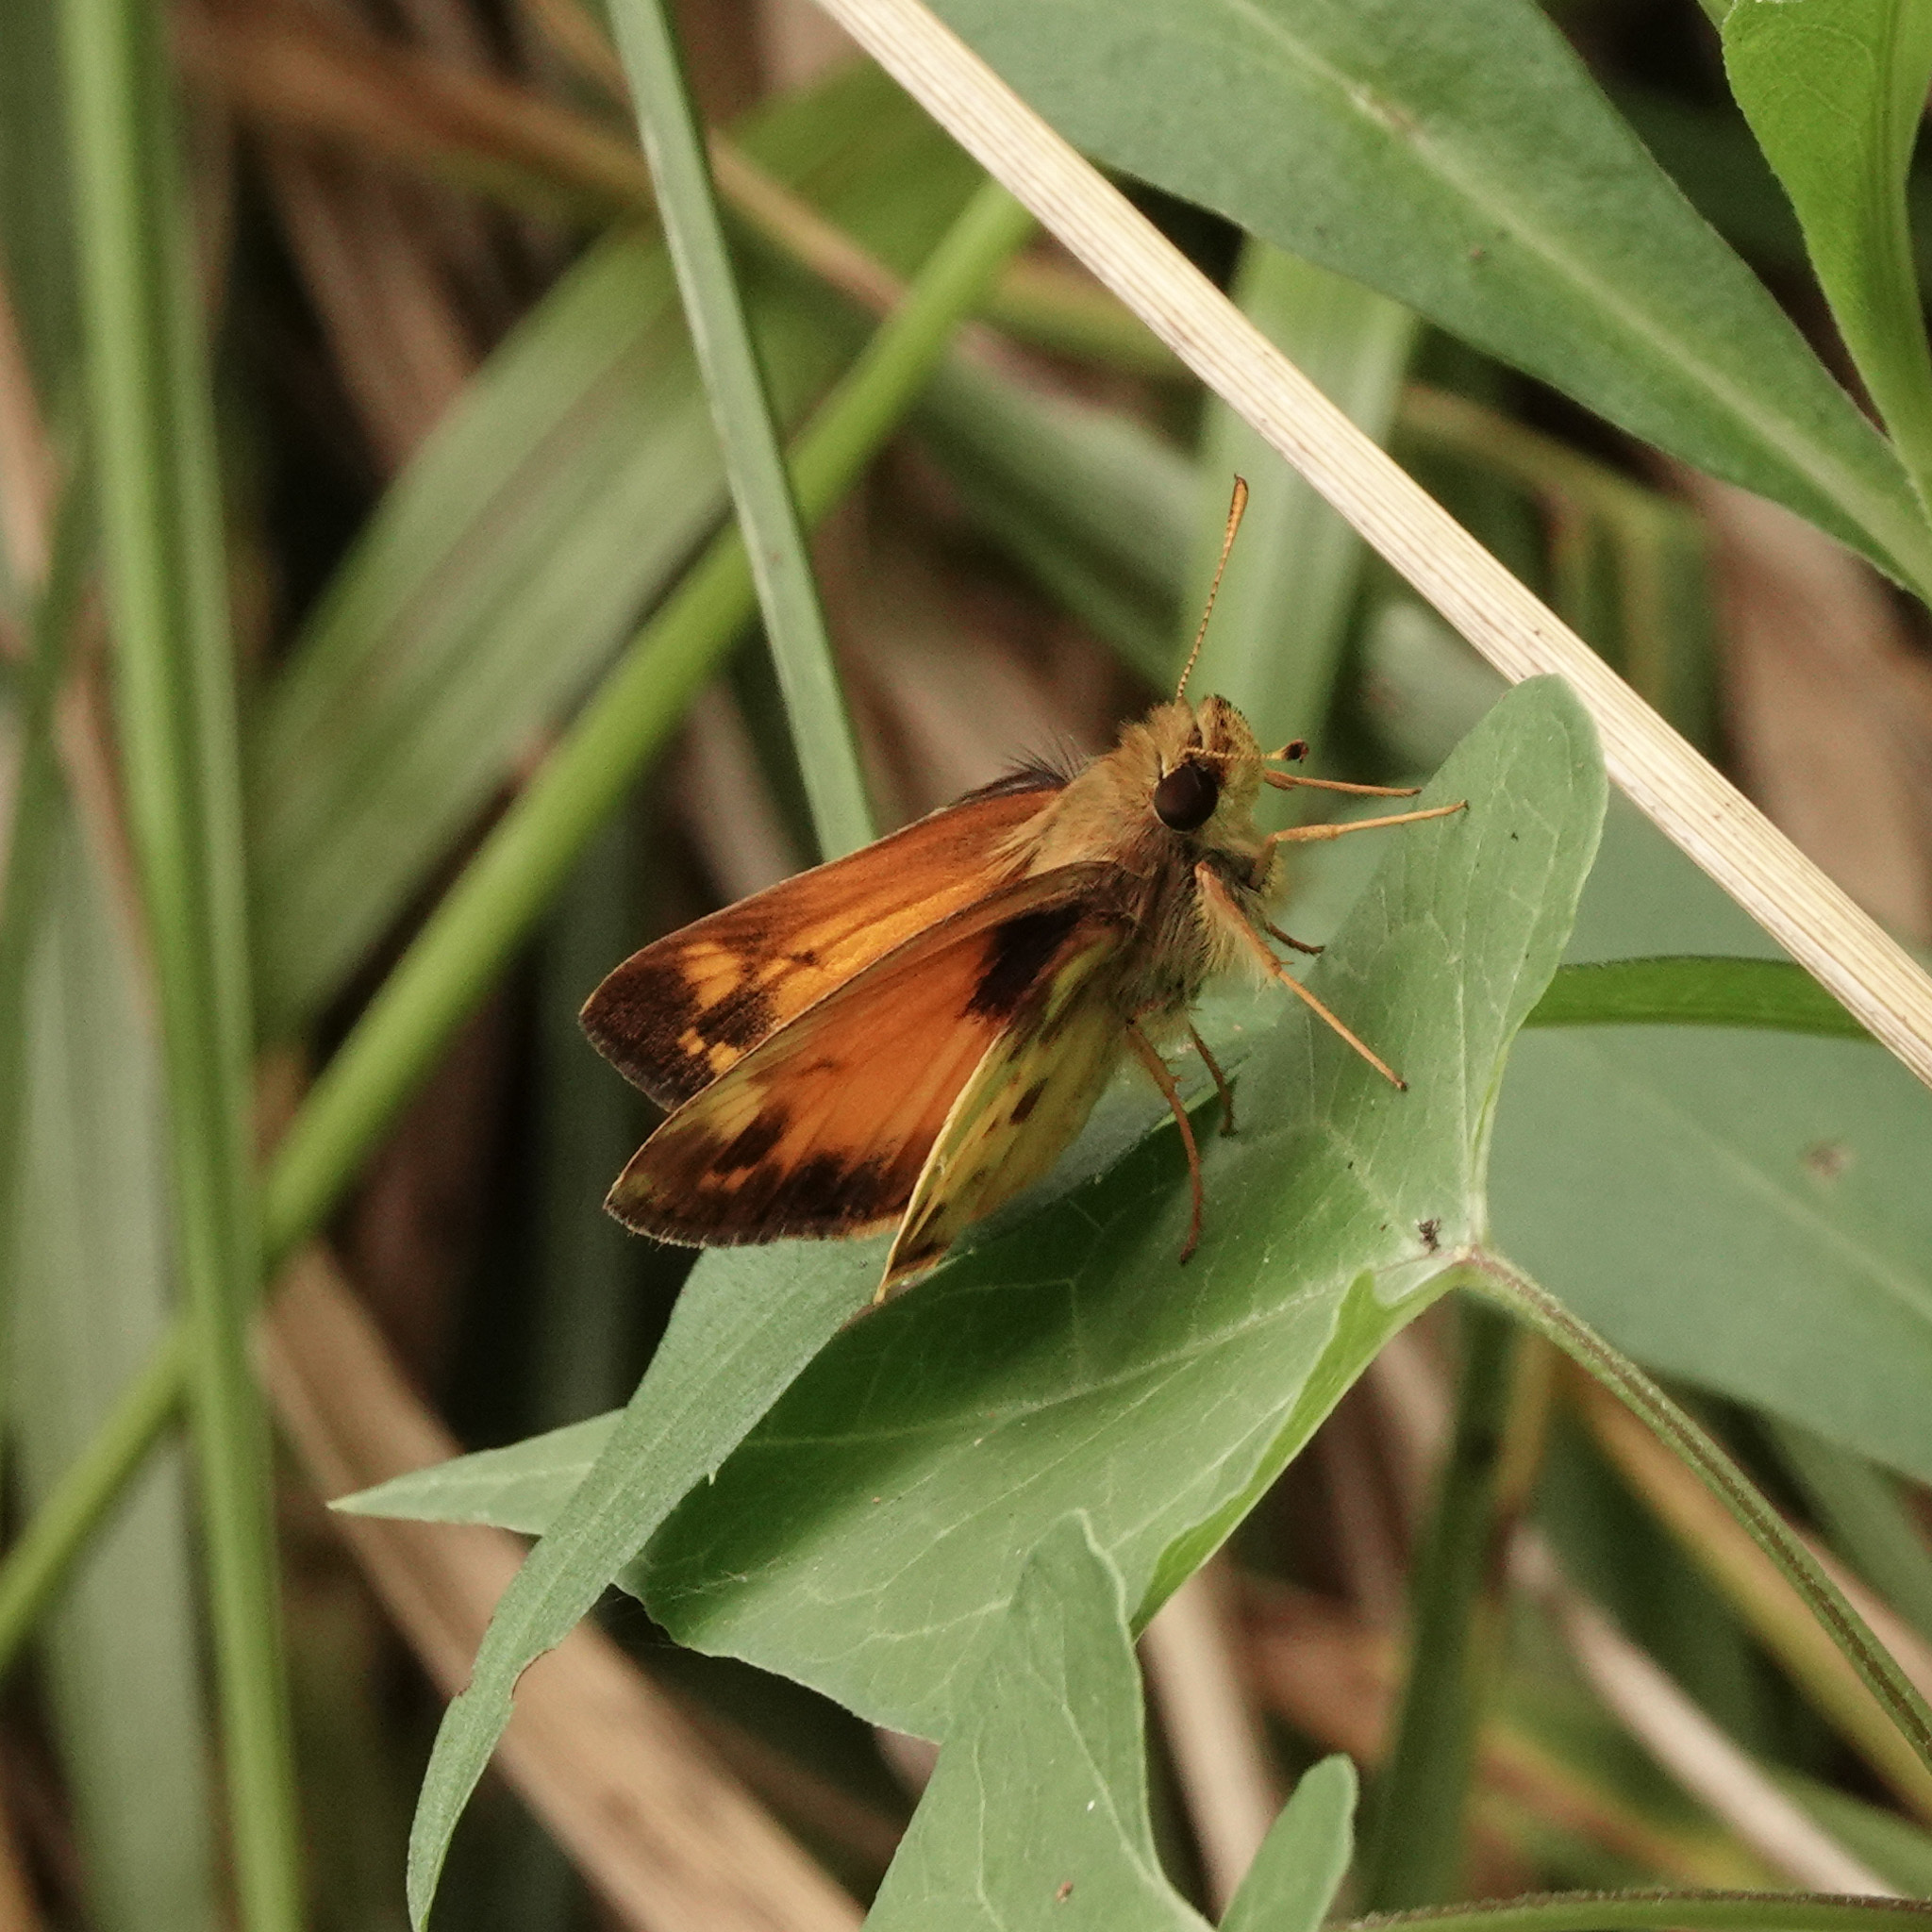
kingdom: Animalia
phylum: Arthropoda
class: Insecta
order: Lepidoptera
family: Hesperiidae
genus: Lon
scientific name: Lon zabulon
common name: Zabulon skipper
